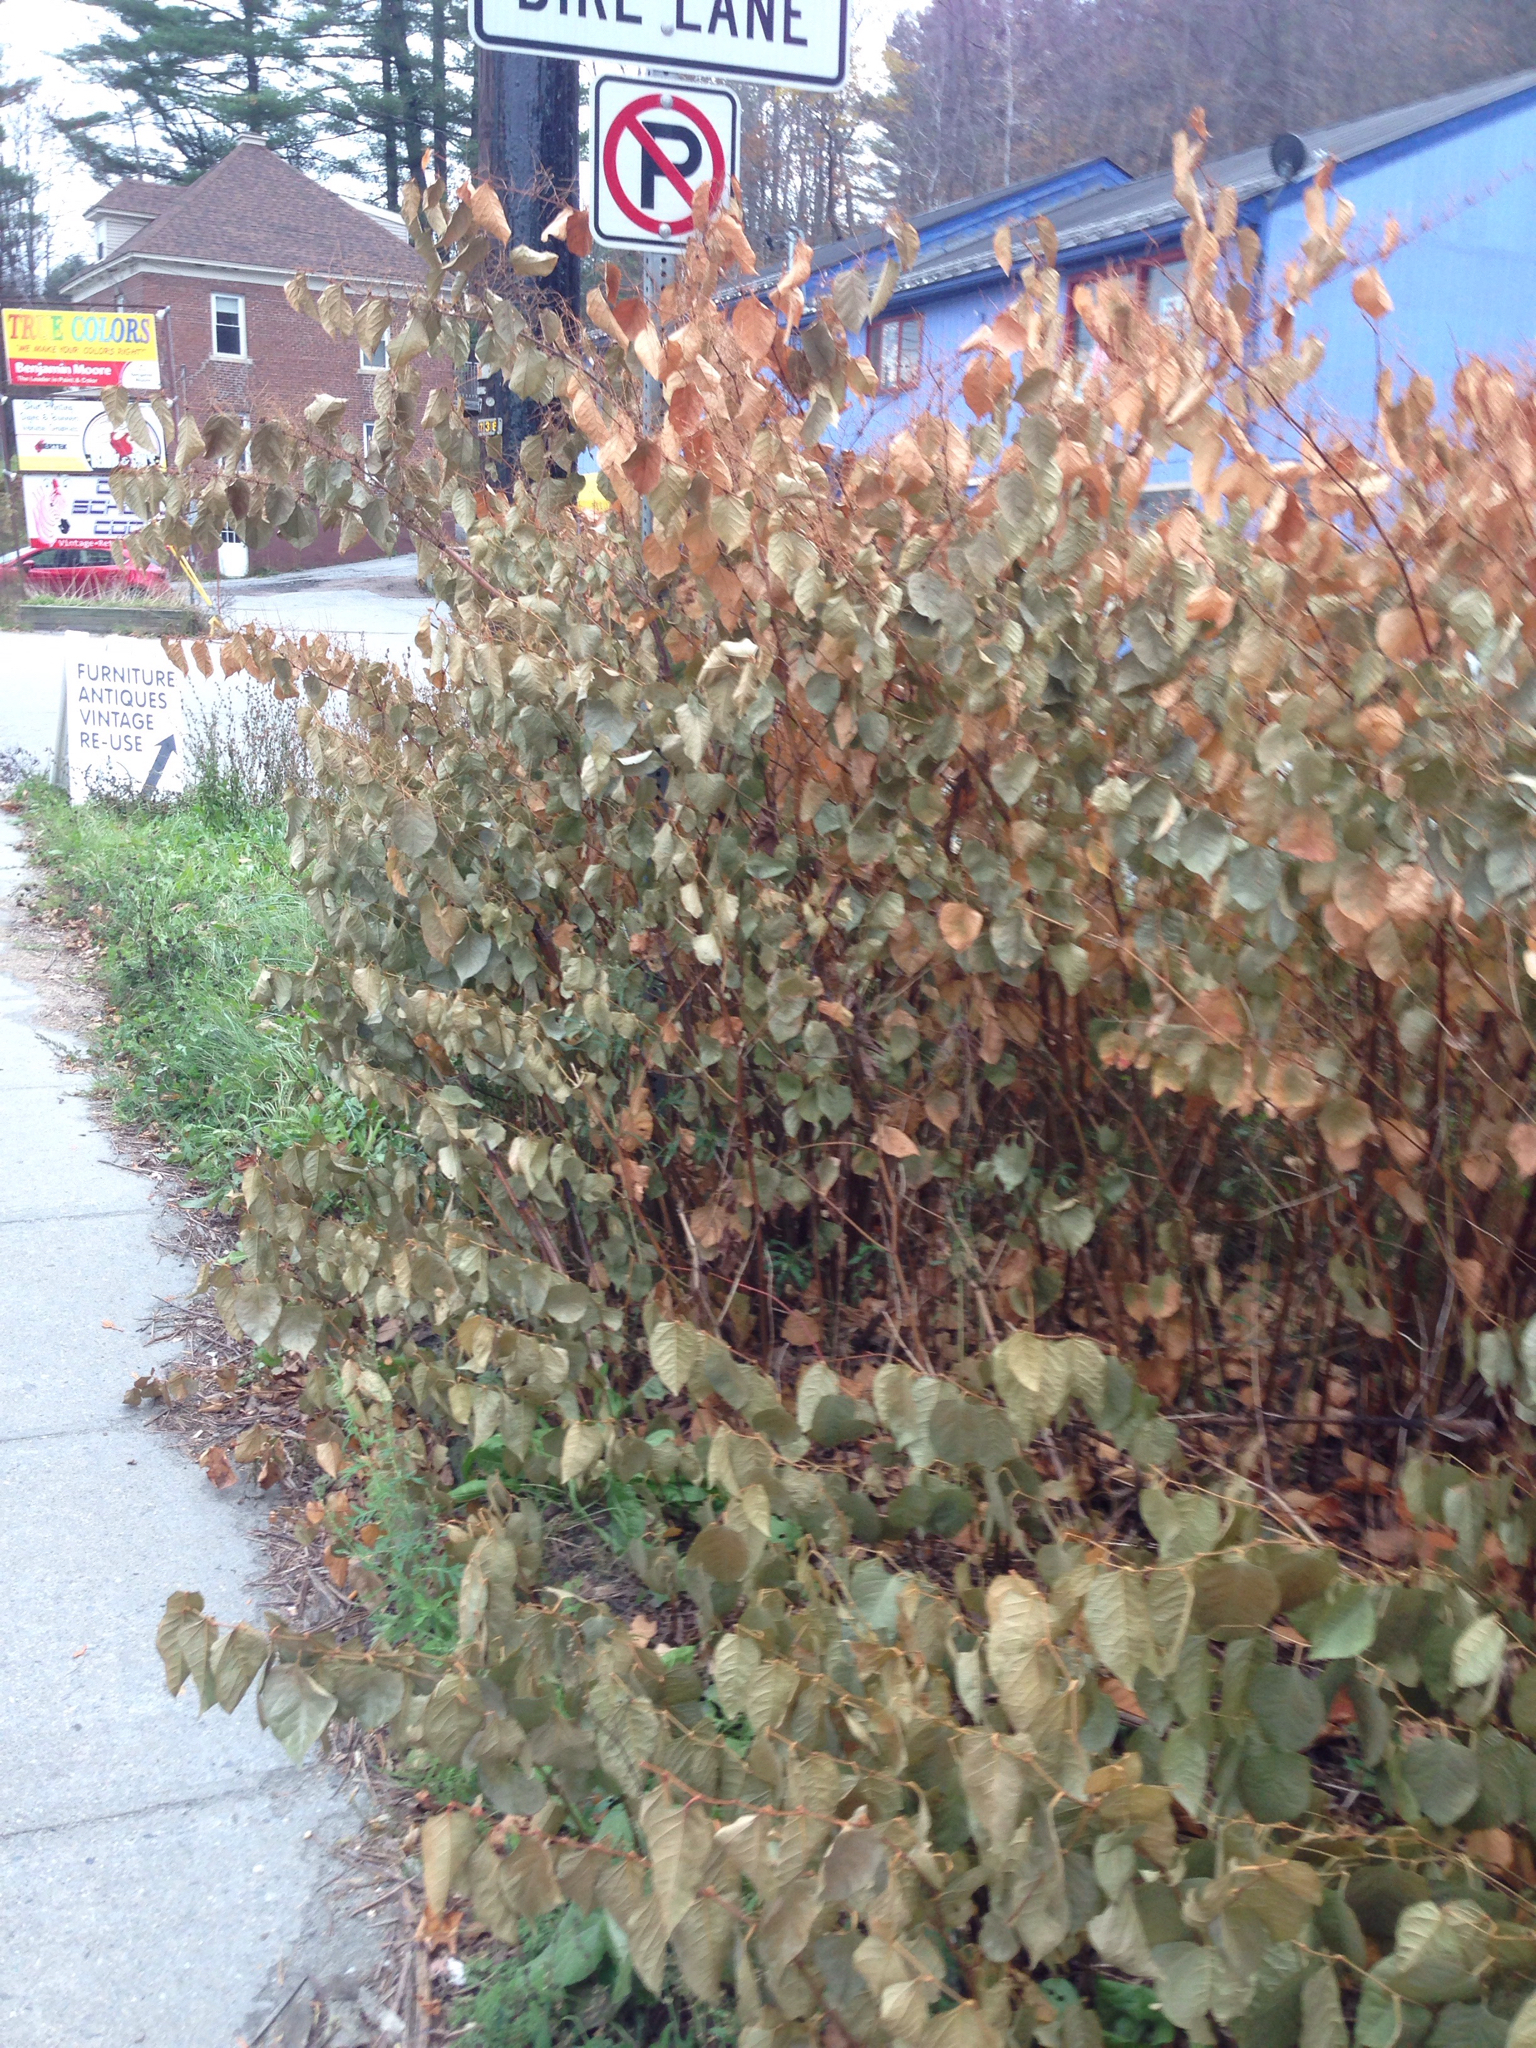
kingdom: Plantae
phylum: Tracheophyta
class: Magnoliopsida
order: Caryophyllales
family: Polygonaceae
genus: Reynoutria
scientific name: Reynoutria japonica
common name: Japanese knotweed
